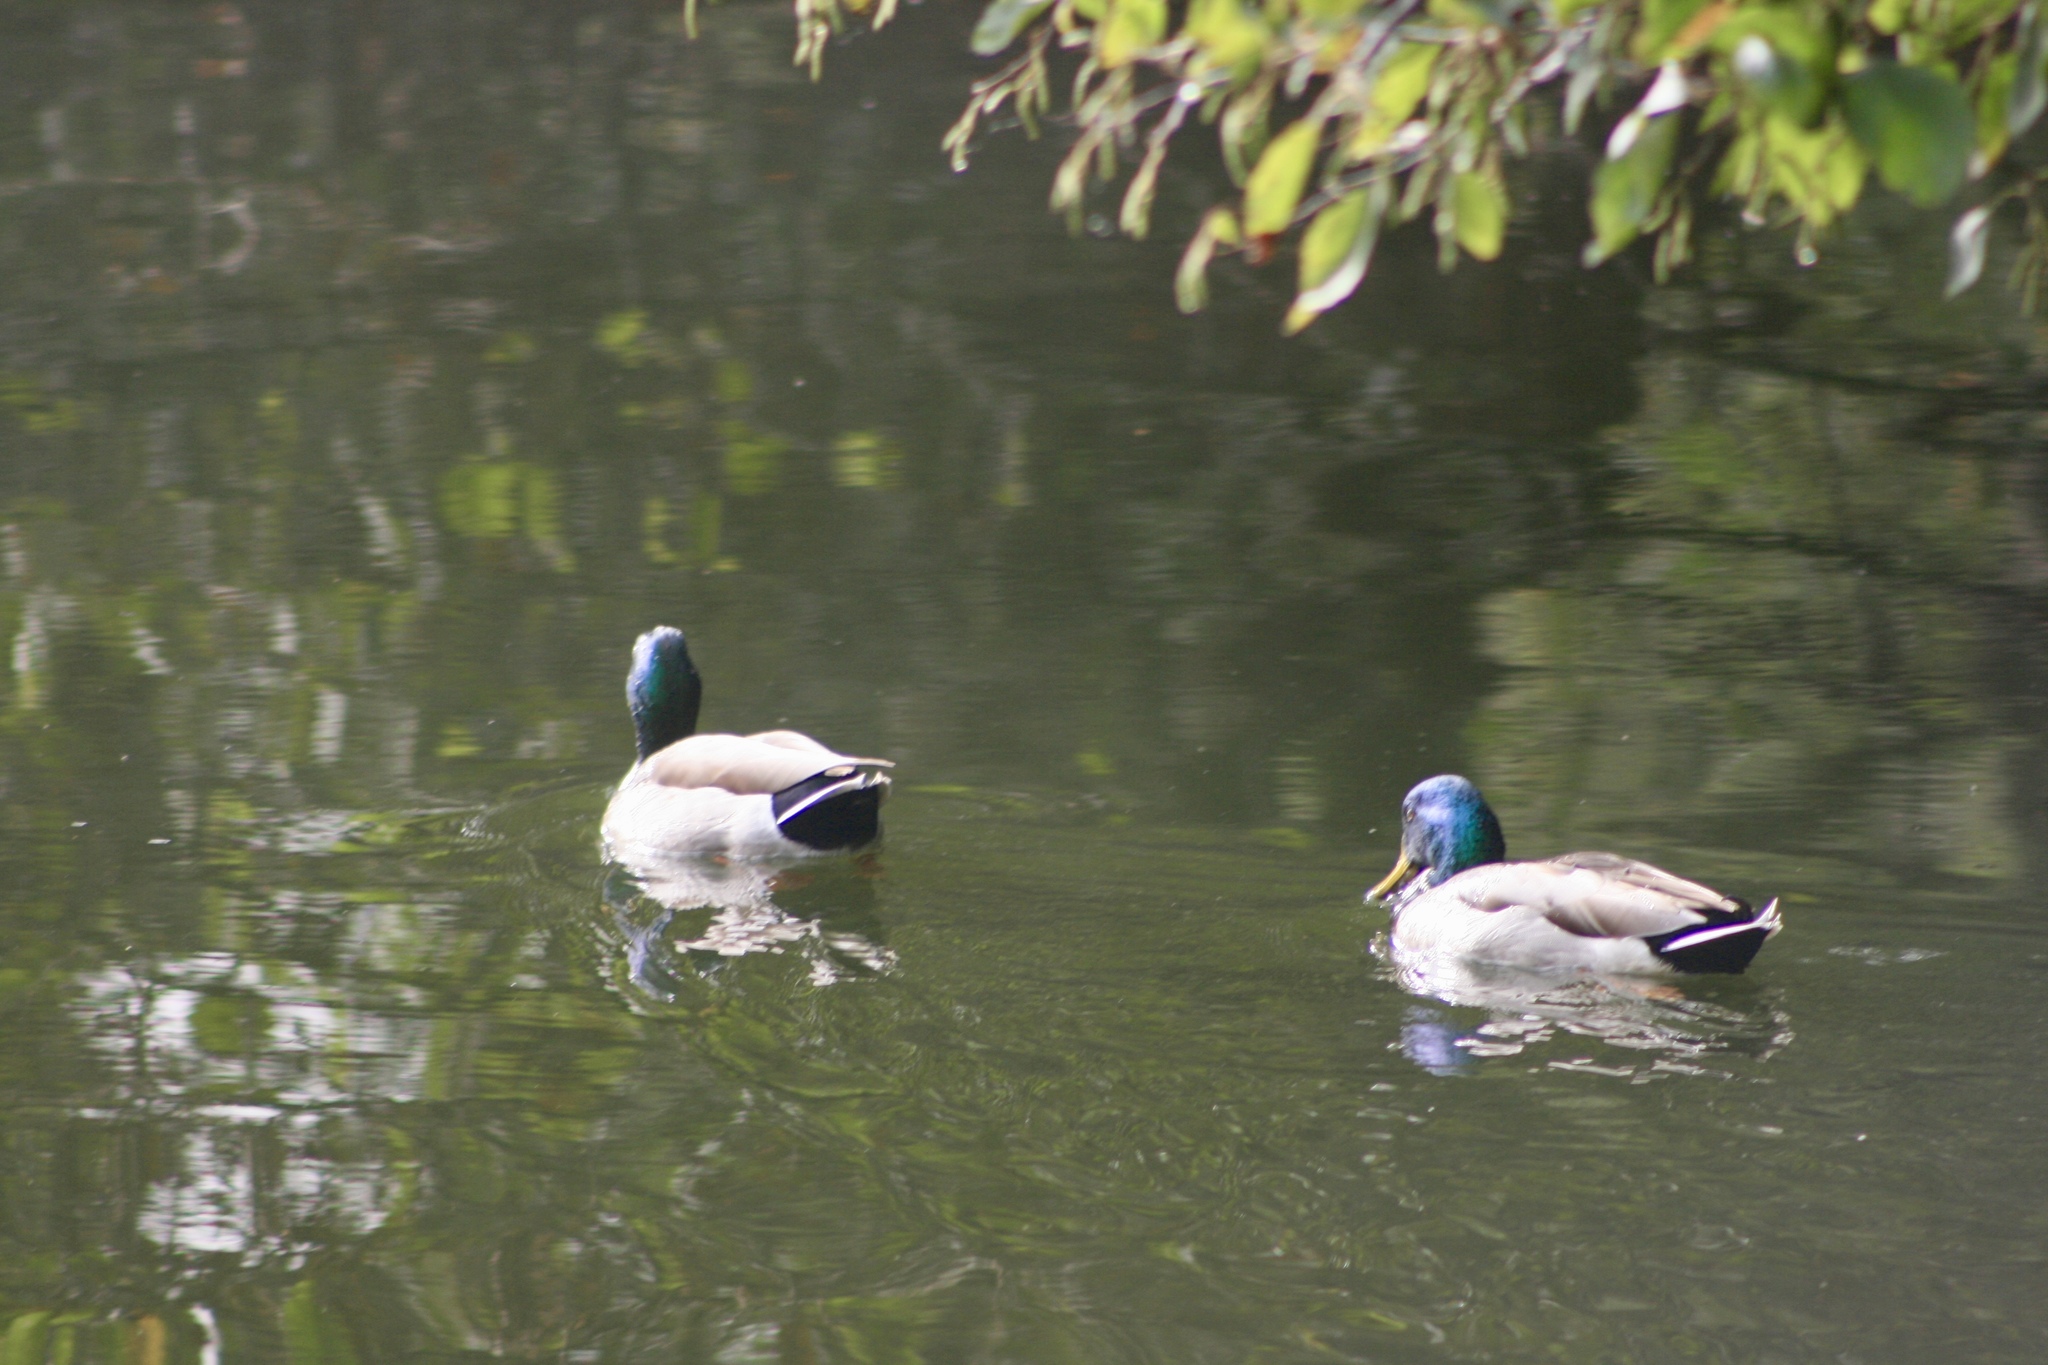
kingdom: Animalia
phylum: Chordata
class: Aves
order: Anseriformes
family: Anatidae
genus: Anas
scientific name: Anas platyrhynchos
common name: Mallard
